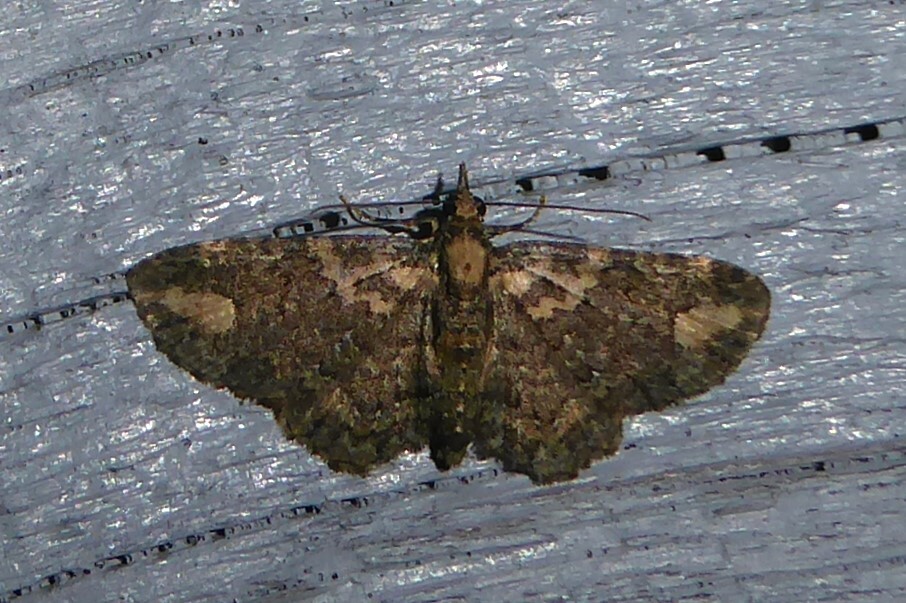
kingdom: Animalia
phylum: Arthropoda
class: Insecta
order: Lepidoptera
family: Geometridae
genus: Pasiphilodes
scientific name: Pasiphilodes testulata
